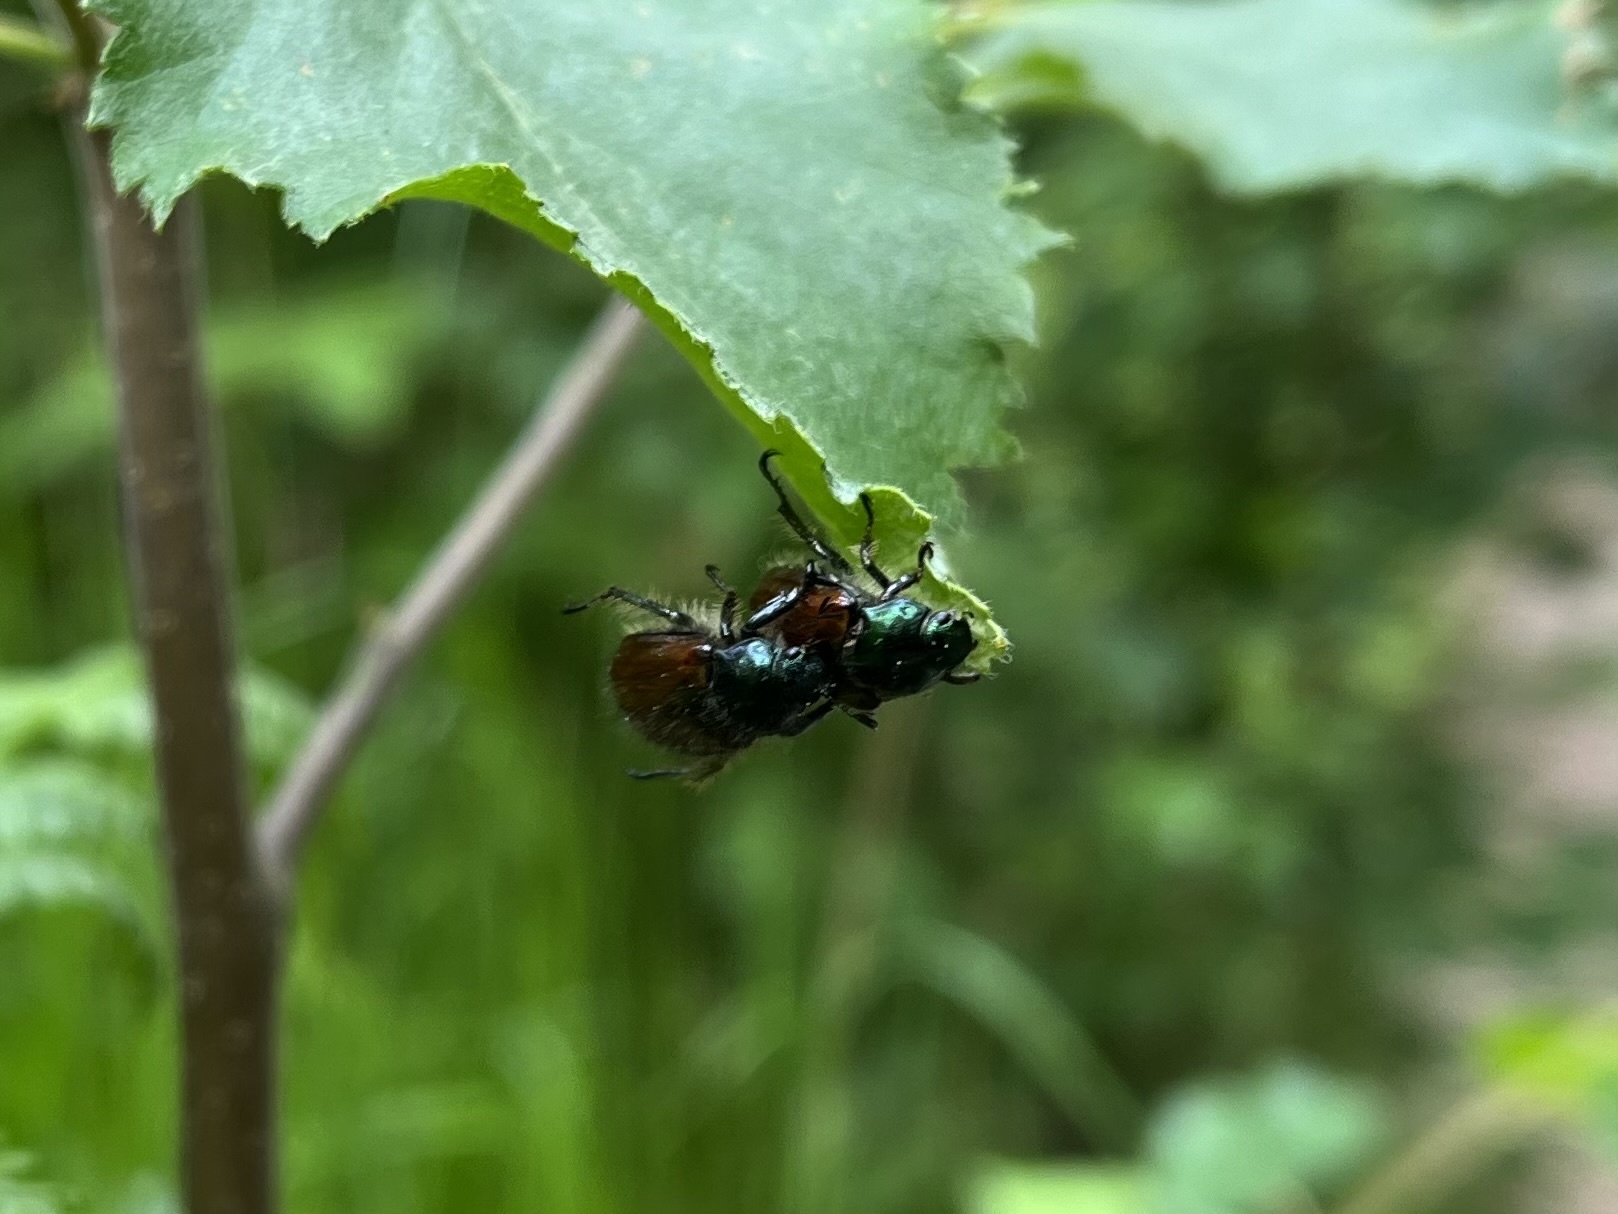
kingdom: Animalia
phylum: Arthropoda
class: Insecta
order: Coleoptera
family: Scarabaeidae
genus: Phyllopertha
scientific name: Phyllopertha horticola
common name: Garden chafer
